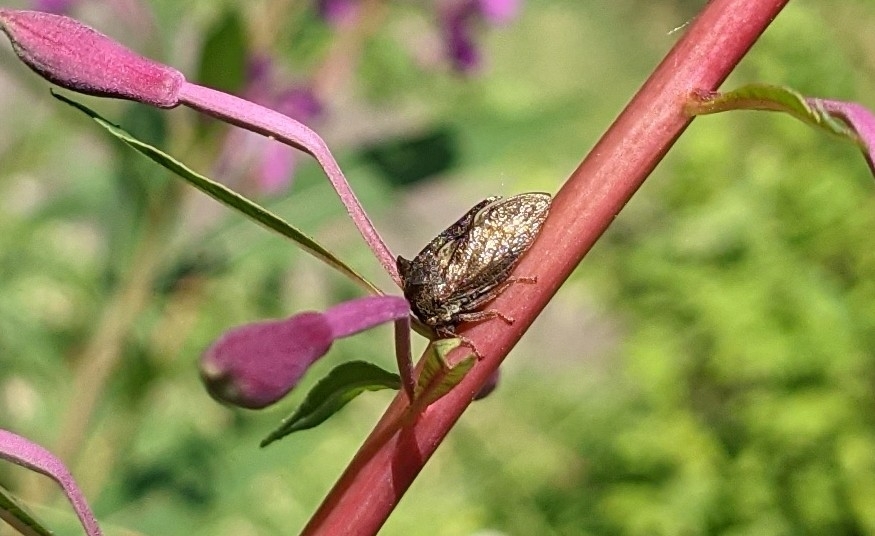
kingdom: Animalia
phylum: Arthropoda
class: Insecta
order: Hemiptera
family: Membracidae
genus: Centrotus
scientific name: Centrotus cornuta
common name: Treehopper
